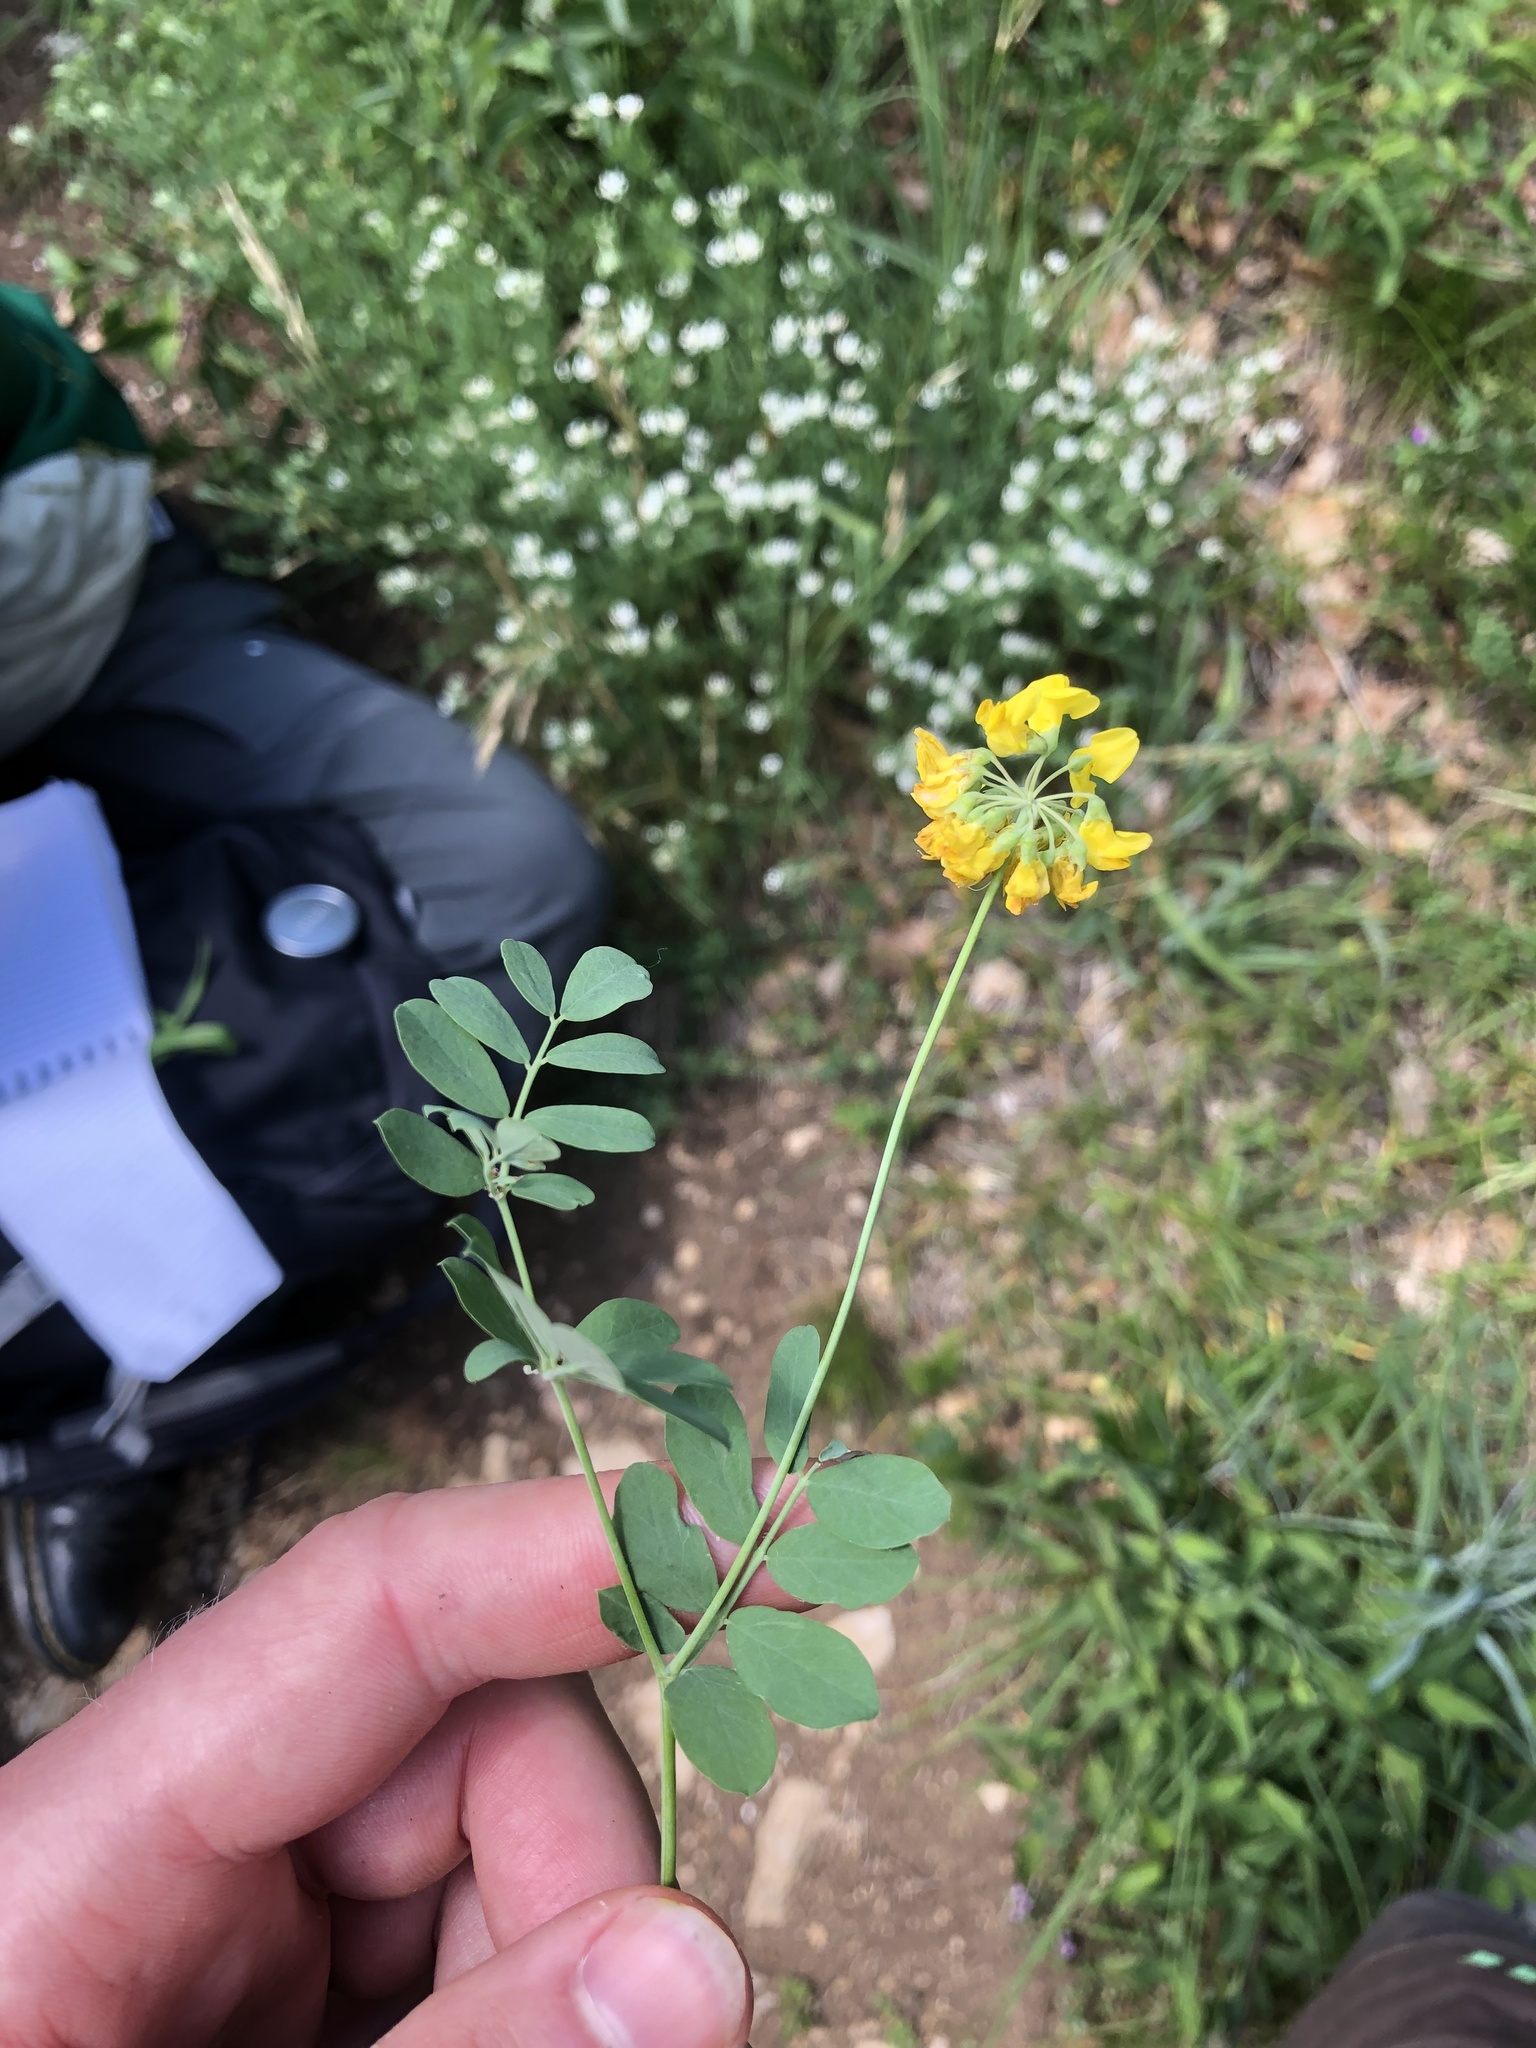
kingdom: Plantae
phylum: Tracheophyta
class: Magnoliopsida
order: Fabales
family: Fabaceae
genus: Coronilla
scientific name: Coronilla coronata
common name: Scorpion-vetch
